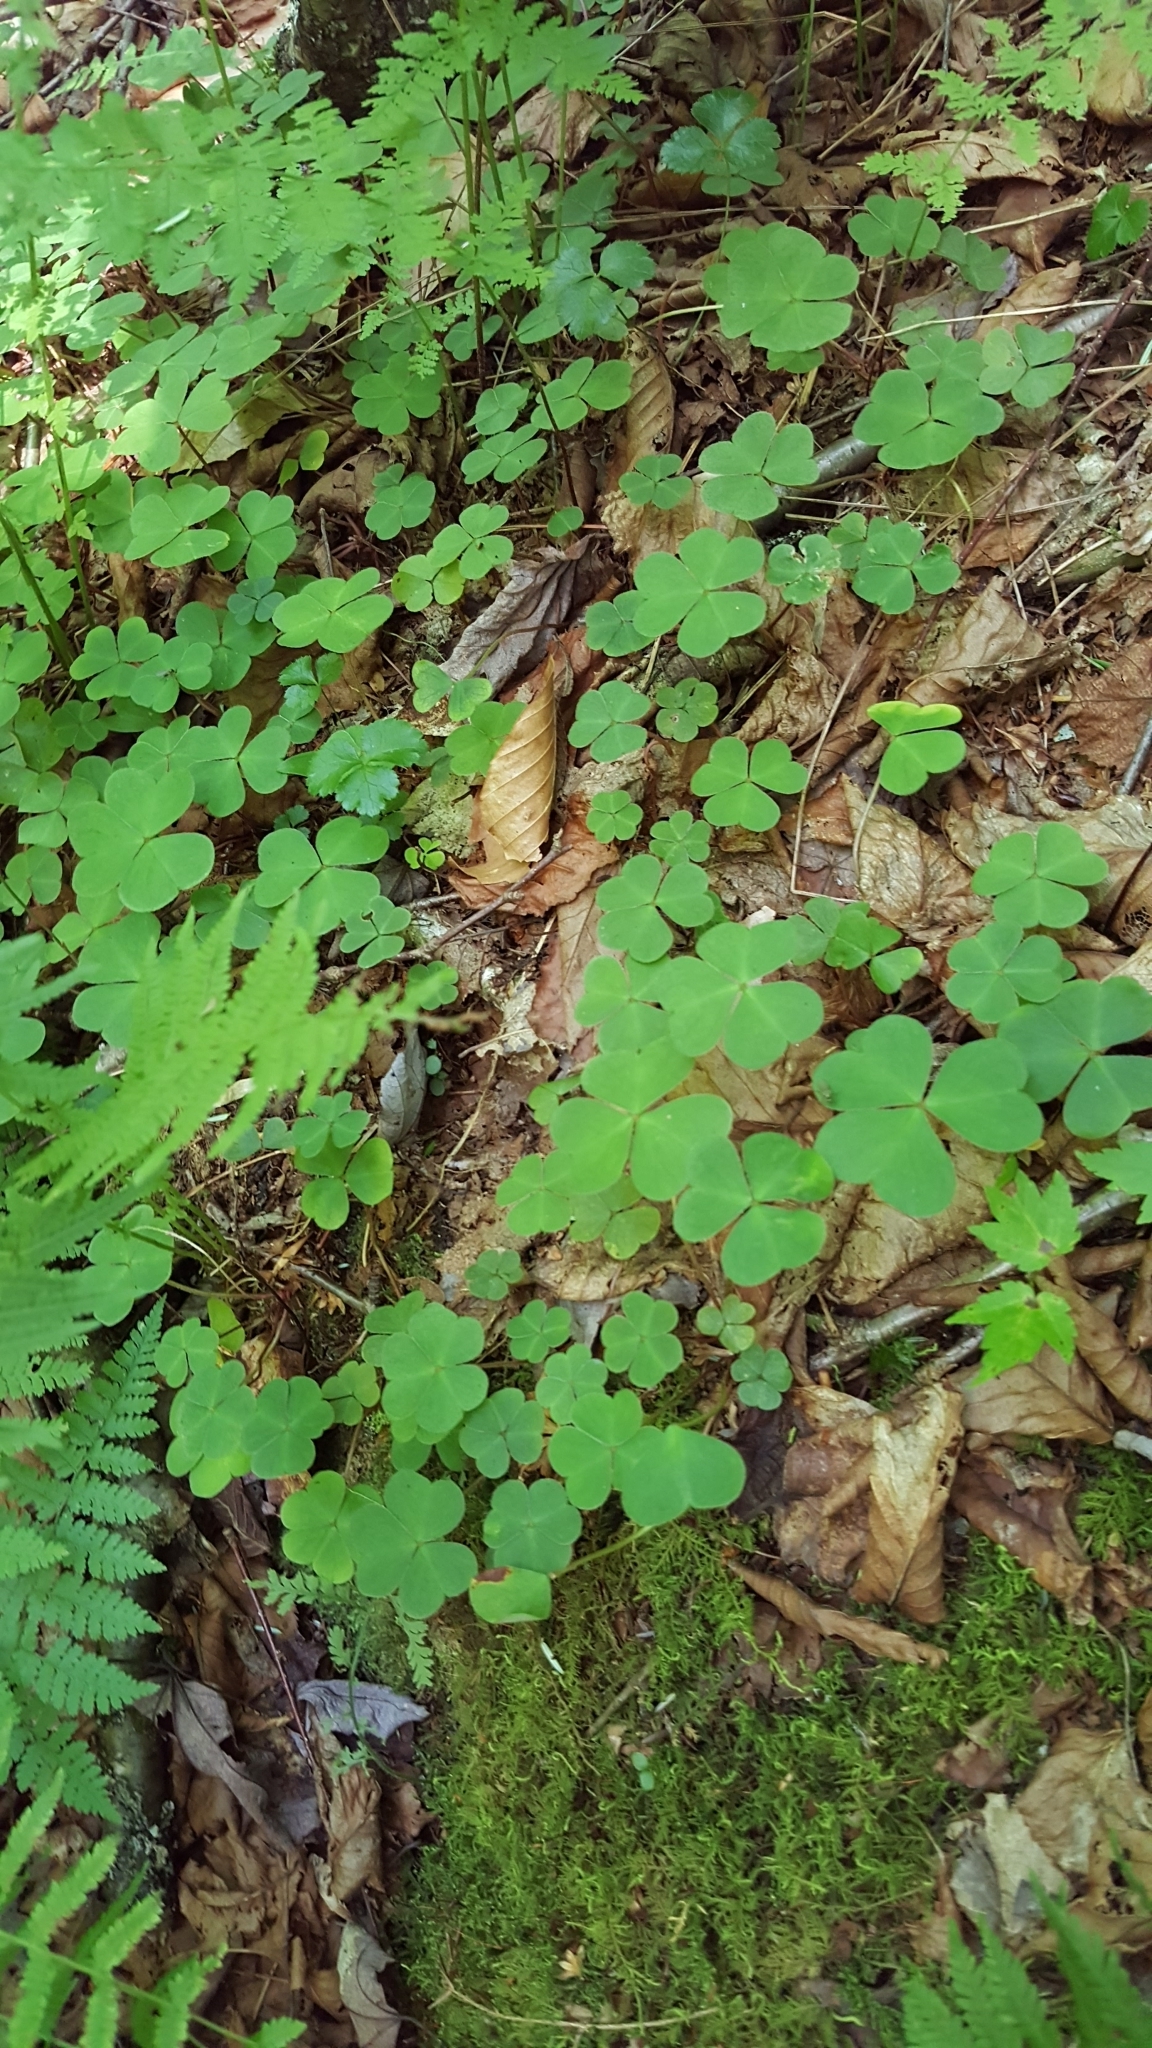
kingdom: Plantae
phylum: Tracheophyta
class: Magnoliopsida
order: Oxalidales
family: Oxalidaceae
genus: Oxalis
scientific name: Oxalis montana
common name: American wood-sorrel
